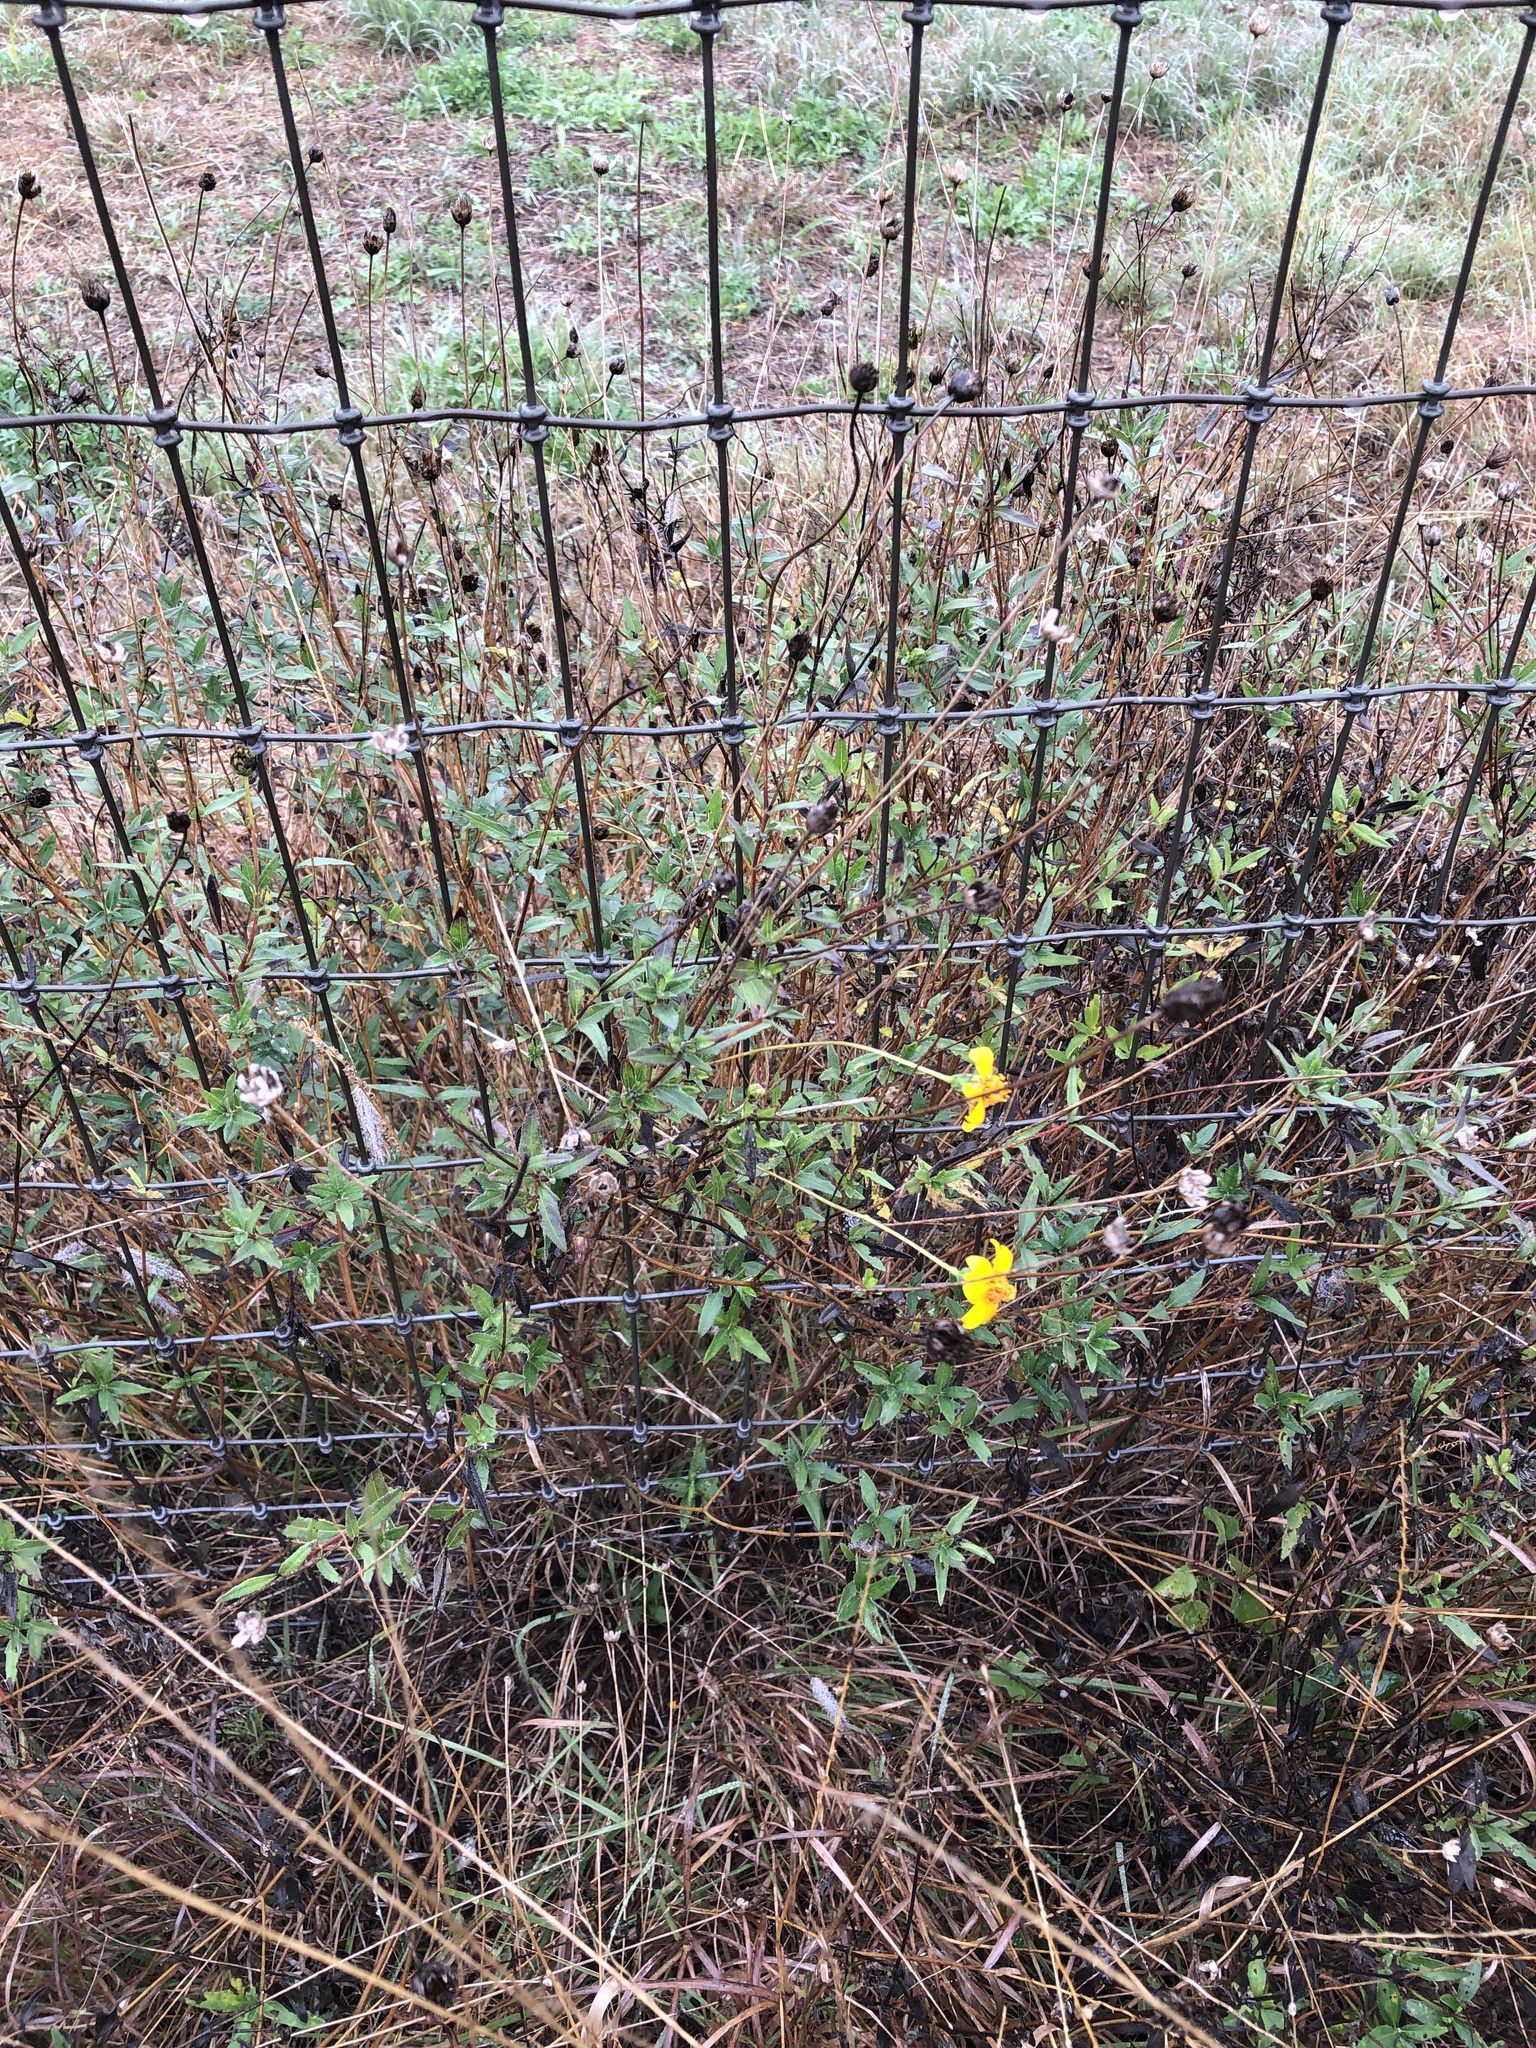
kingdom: Plantae
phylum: Tracheophyta
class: Magnoliopsida
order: Asterales
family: Asteraceae
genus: Wedelia
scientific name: Wedelia acapulcensis
